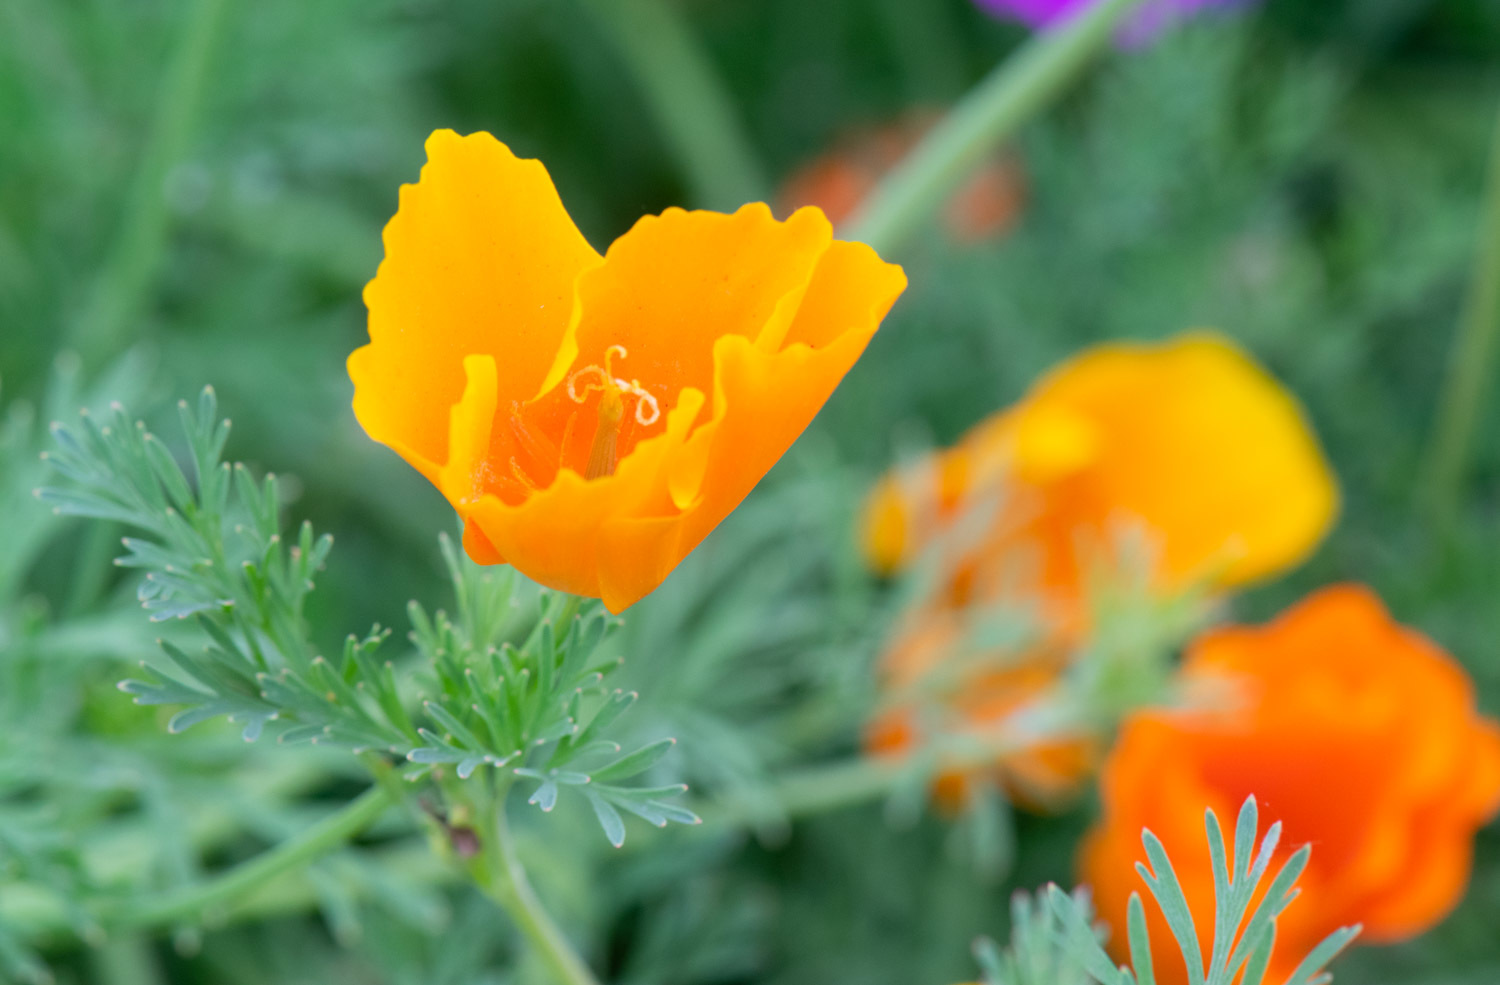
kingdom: Plantae
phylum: Tracheophyta
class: Magnoliopsida
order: Ranunculales
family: Papaveraceae
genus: Eschscholzia
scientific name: Eschscholzia californica
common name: California poppy
